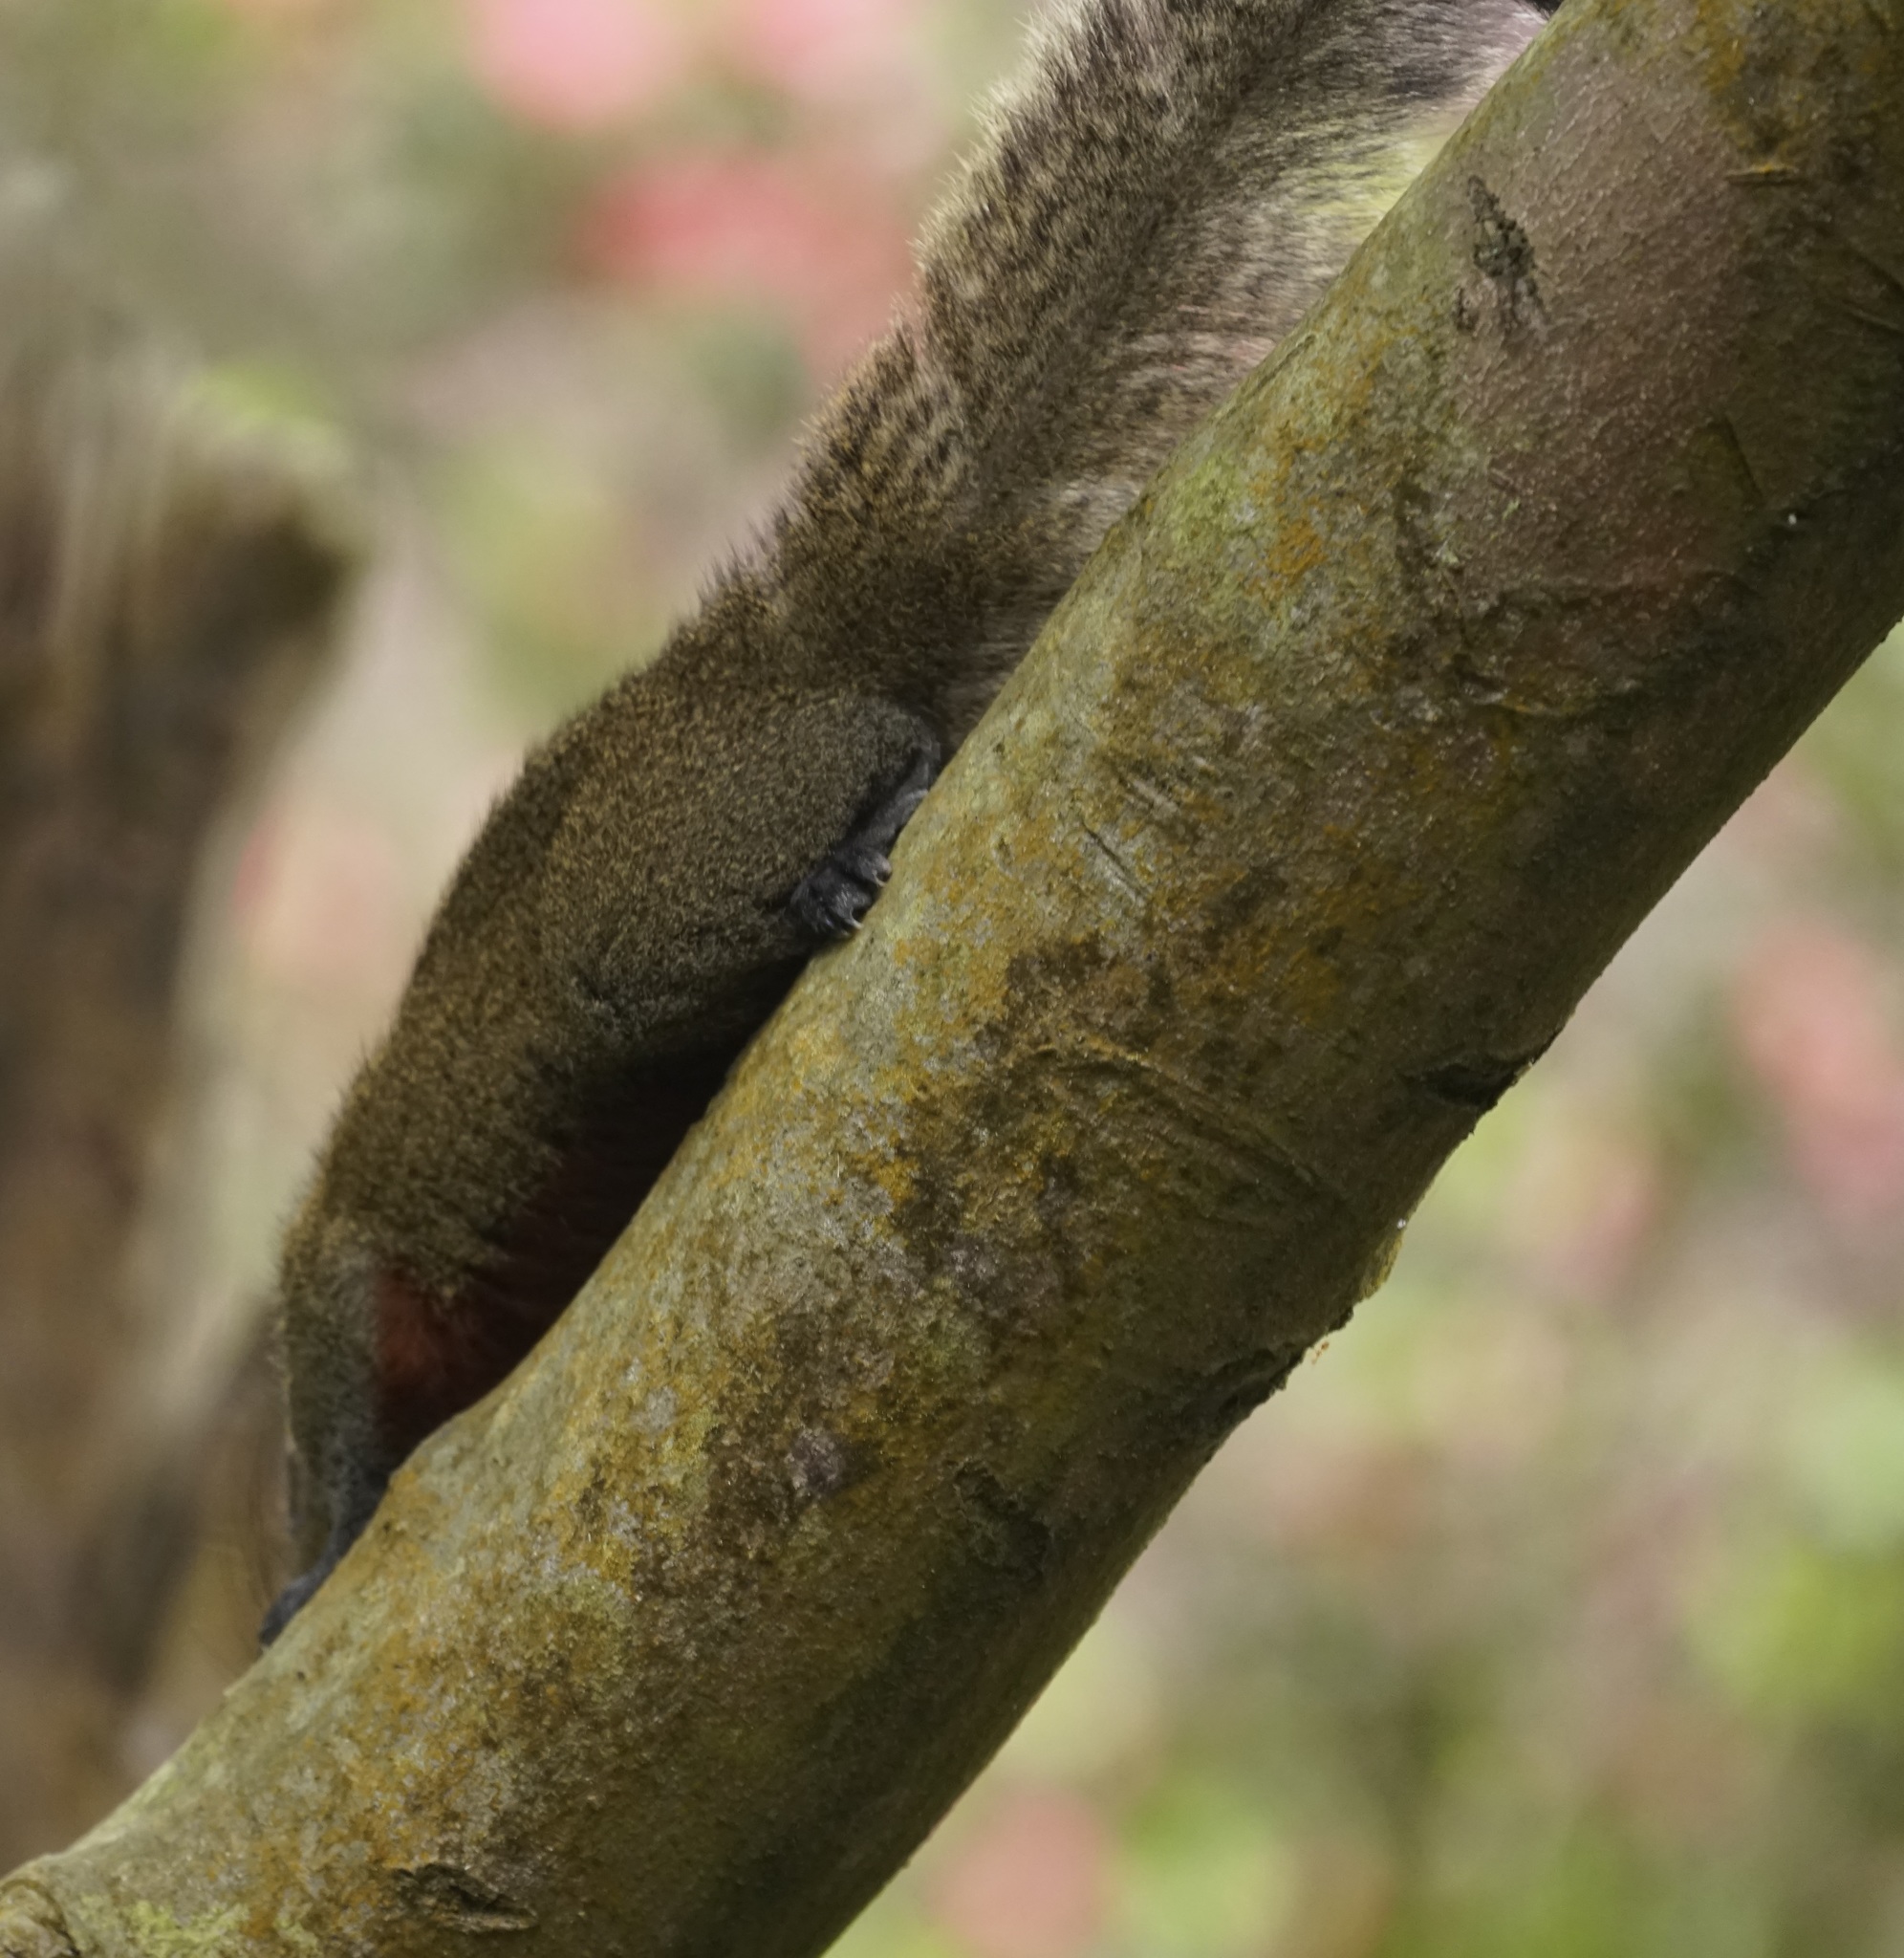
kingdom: Animalia
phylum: Chordata
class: Mammalia
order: Rodentia
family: Sciuridae
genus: Callosciurus
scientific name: Callosciurus erythraeus
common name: Pallas's squirrel
